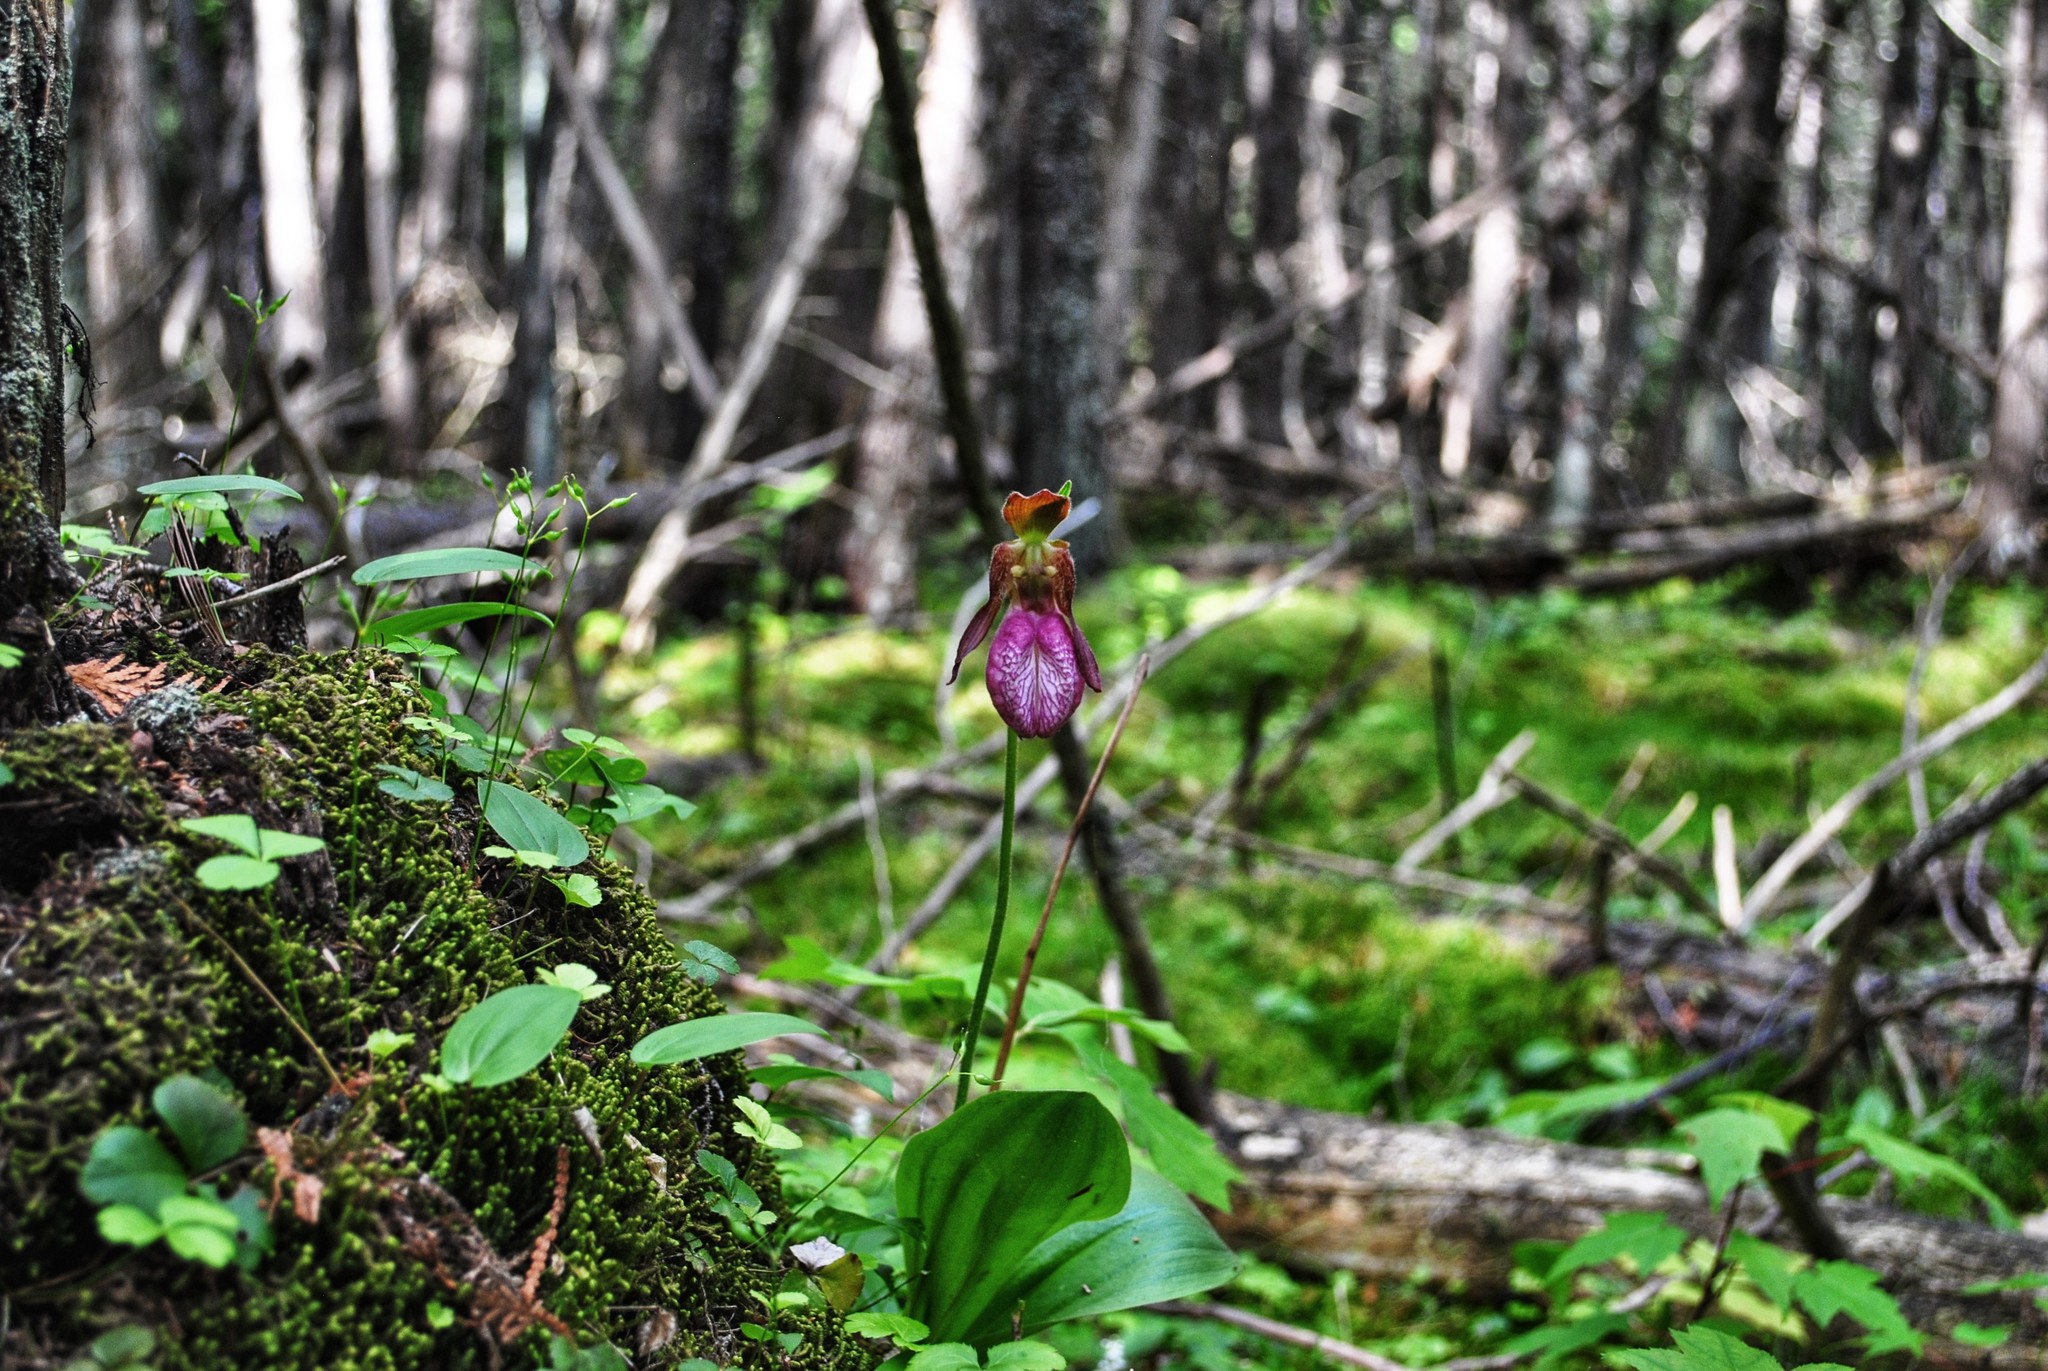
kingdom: Plantae
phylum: Tracheophyta
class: Liliopsida
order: Asparagales
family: Orchidaceae
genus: Cypripedium
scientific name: Cypripedium acaule
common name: Pink lady's-slipper
